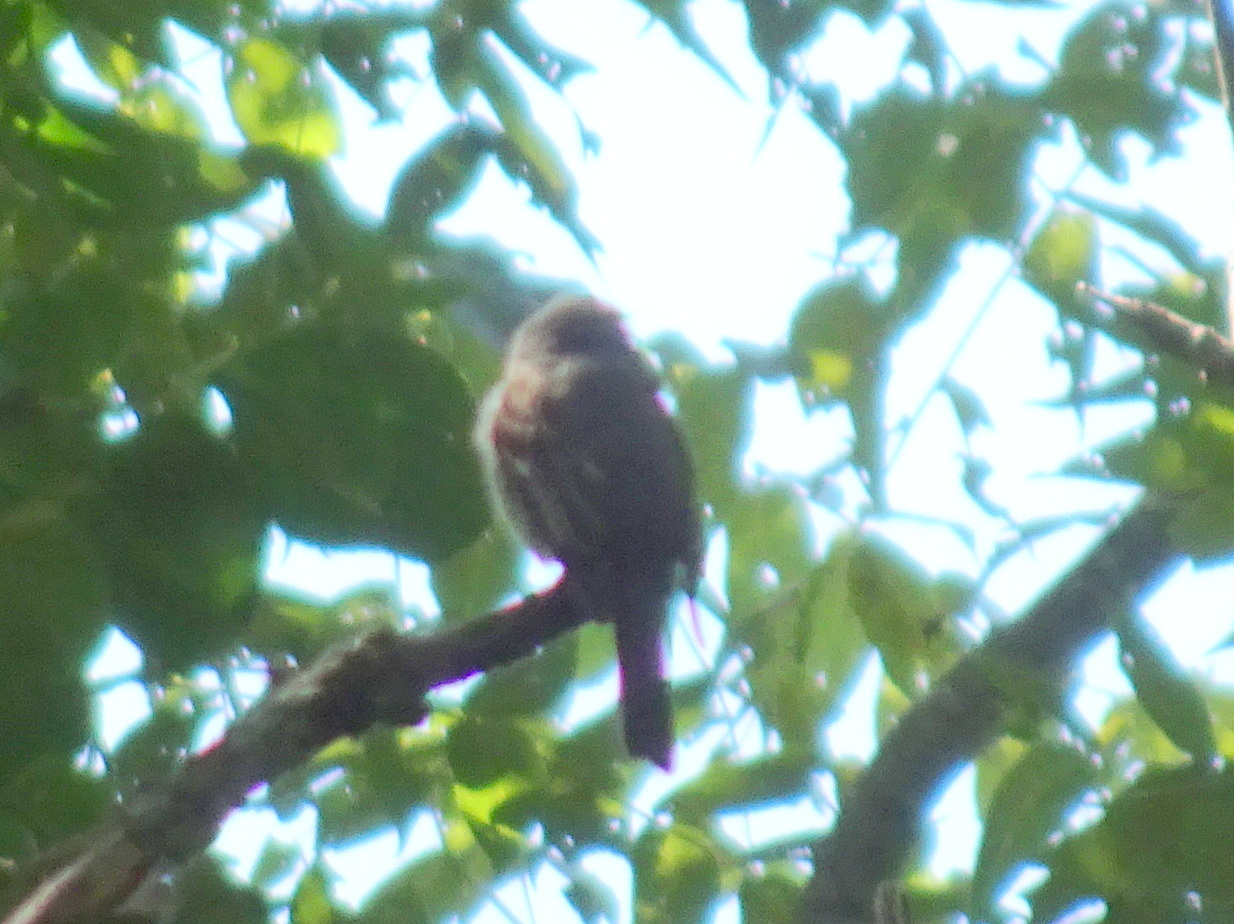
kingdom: Animalia
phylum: Chordata
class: Aves
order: Passeriformes
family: Tyrannidae
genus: Contopus
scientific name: Contopus virens
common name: Eastern wood-pewee
